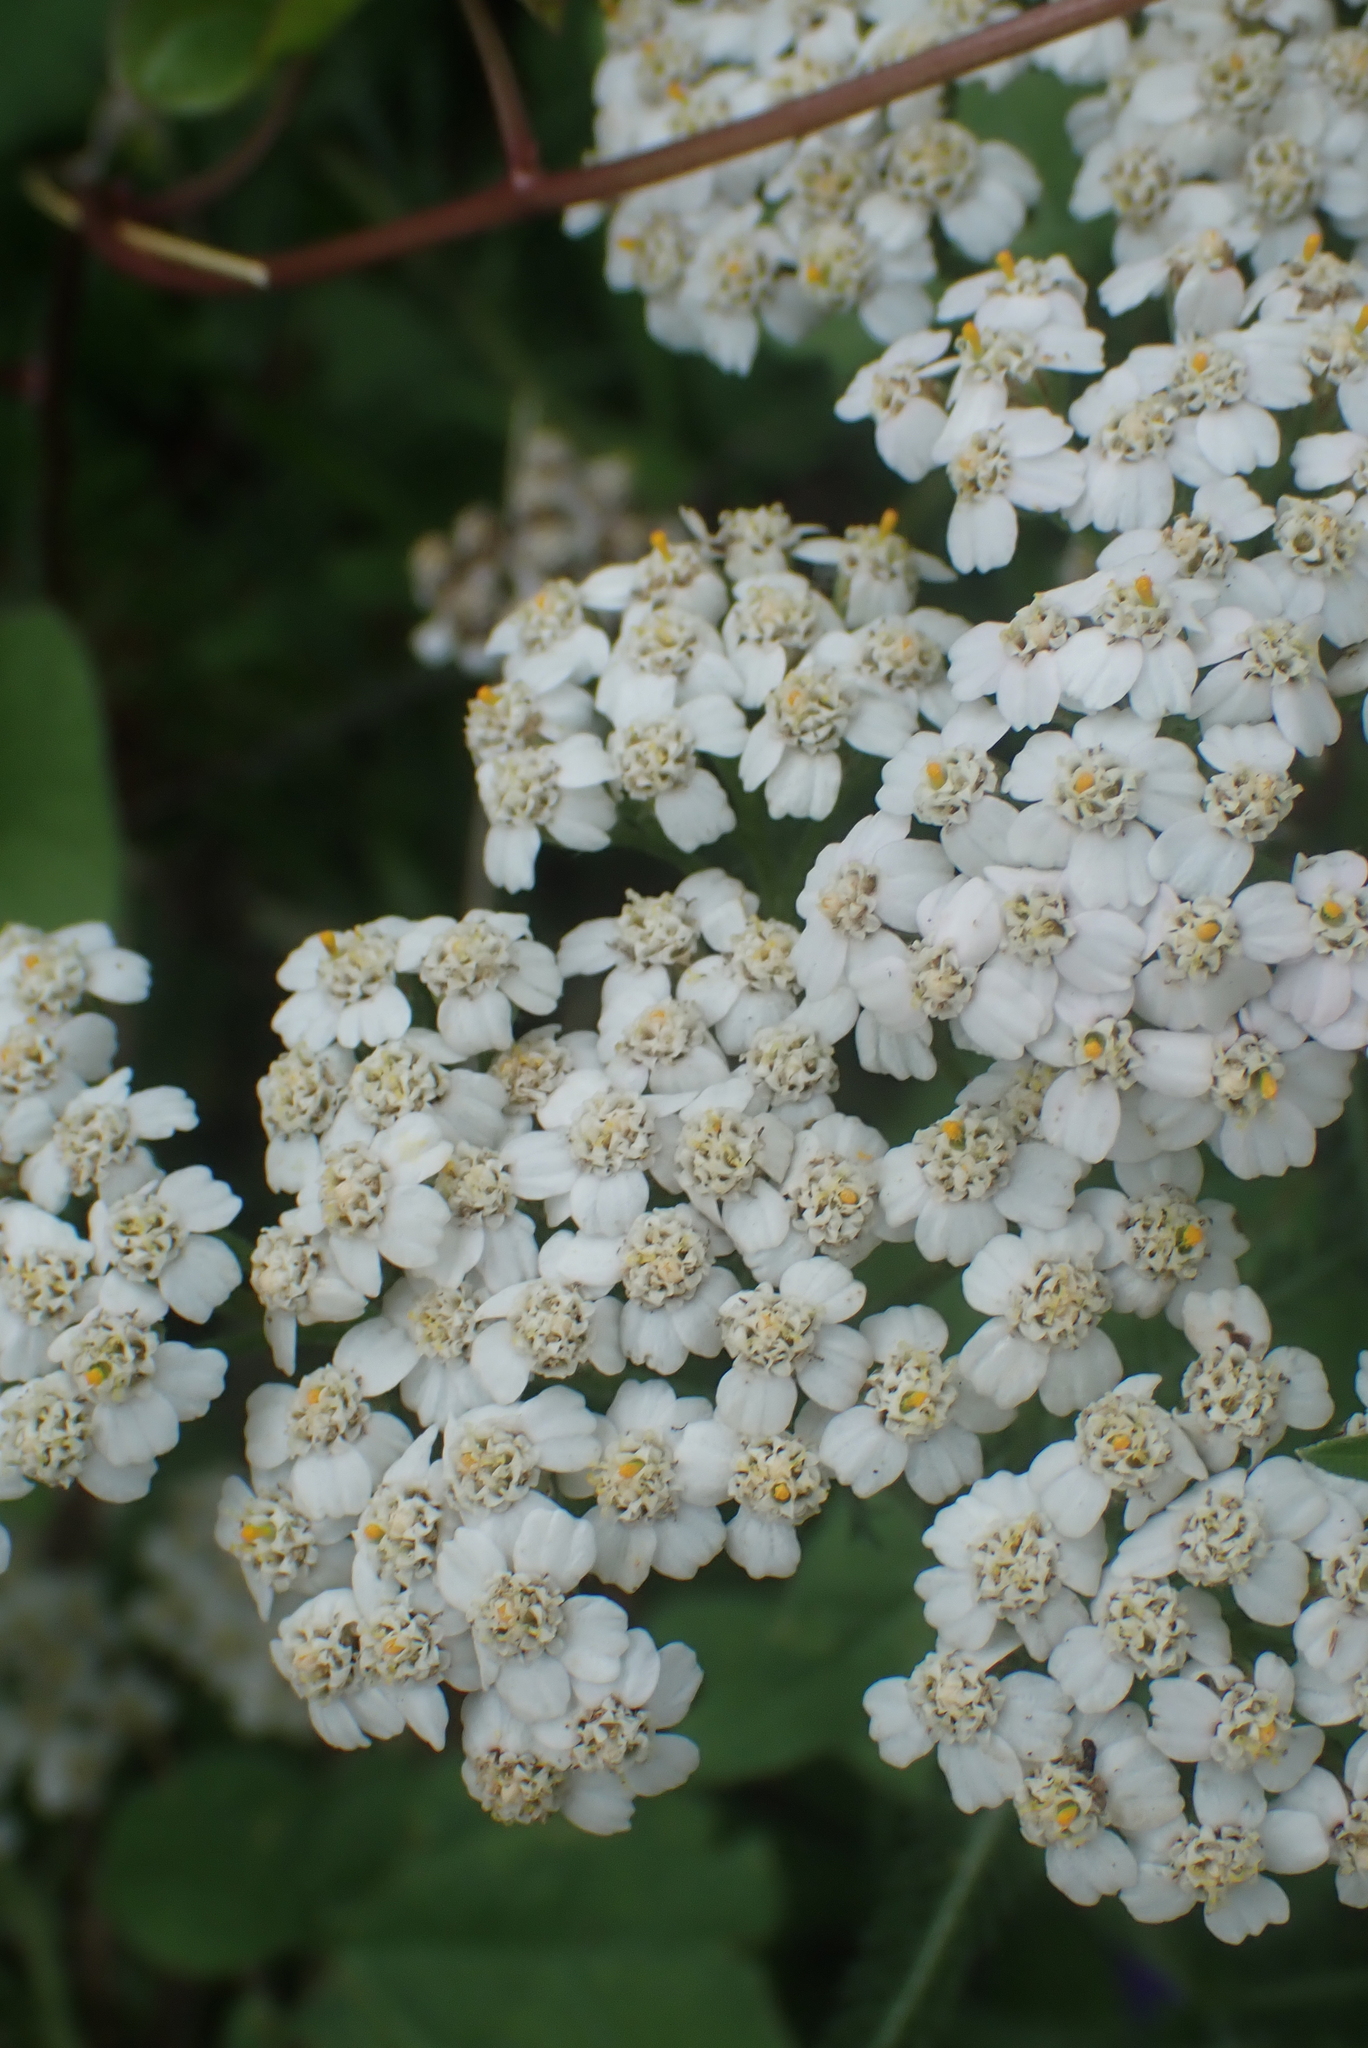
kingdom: Plantae
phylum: Tracheophyta
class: Magnoliopsida
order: Asterales
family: Asteraceae
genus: Achillea
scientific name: Achillea millefolium
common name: Yarrow
